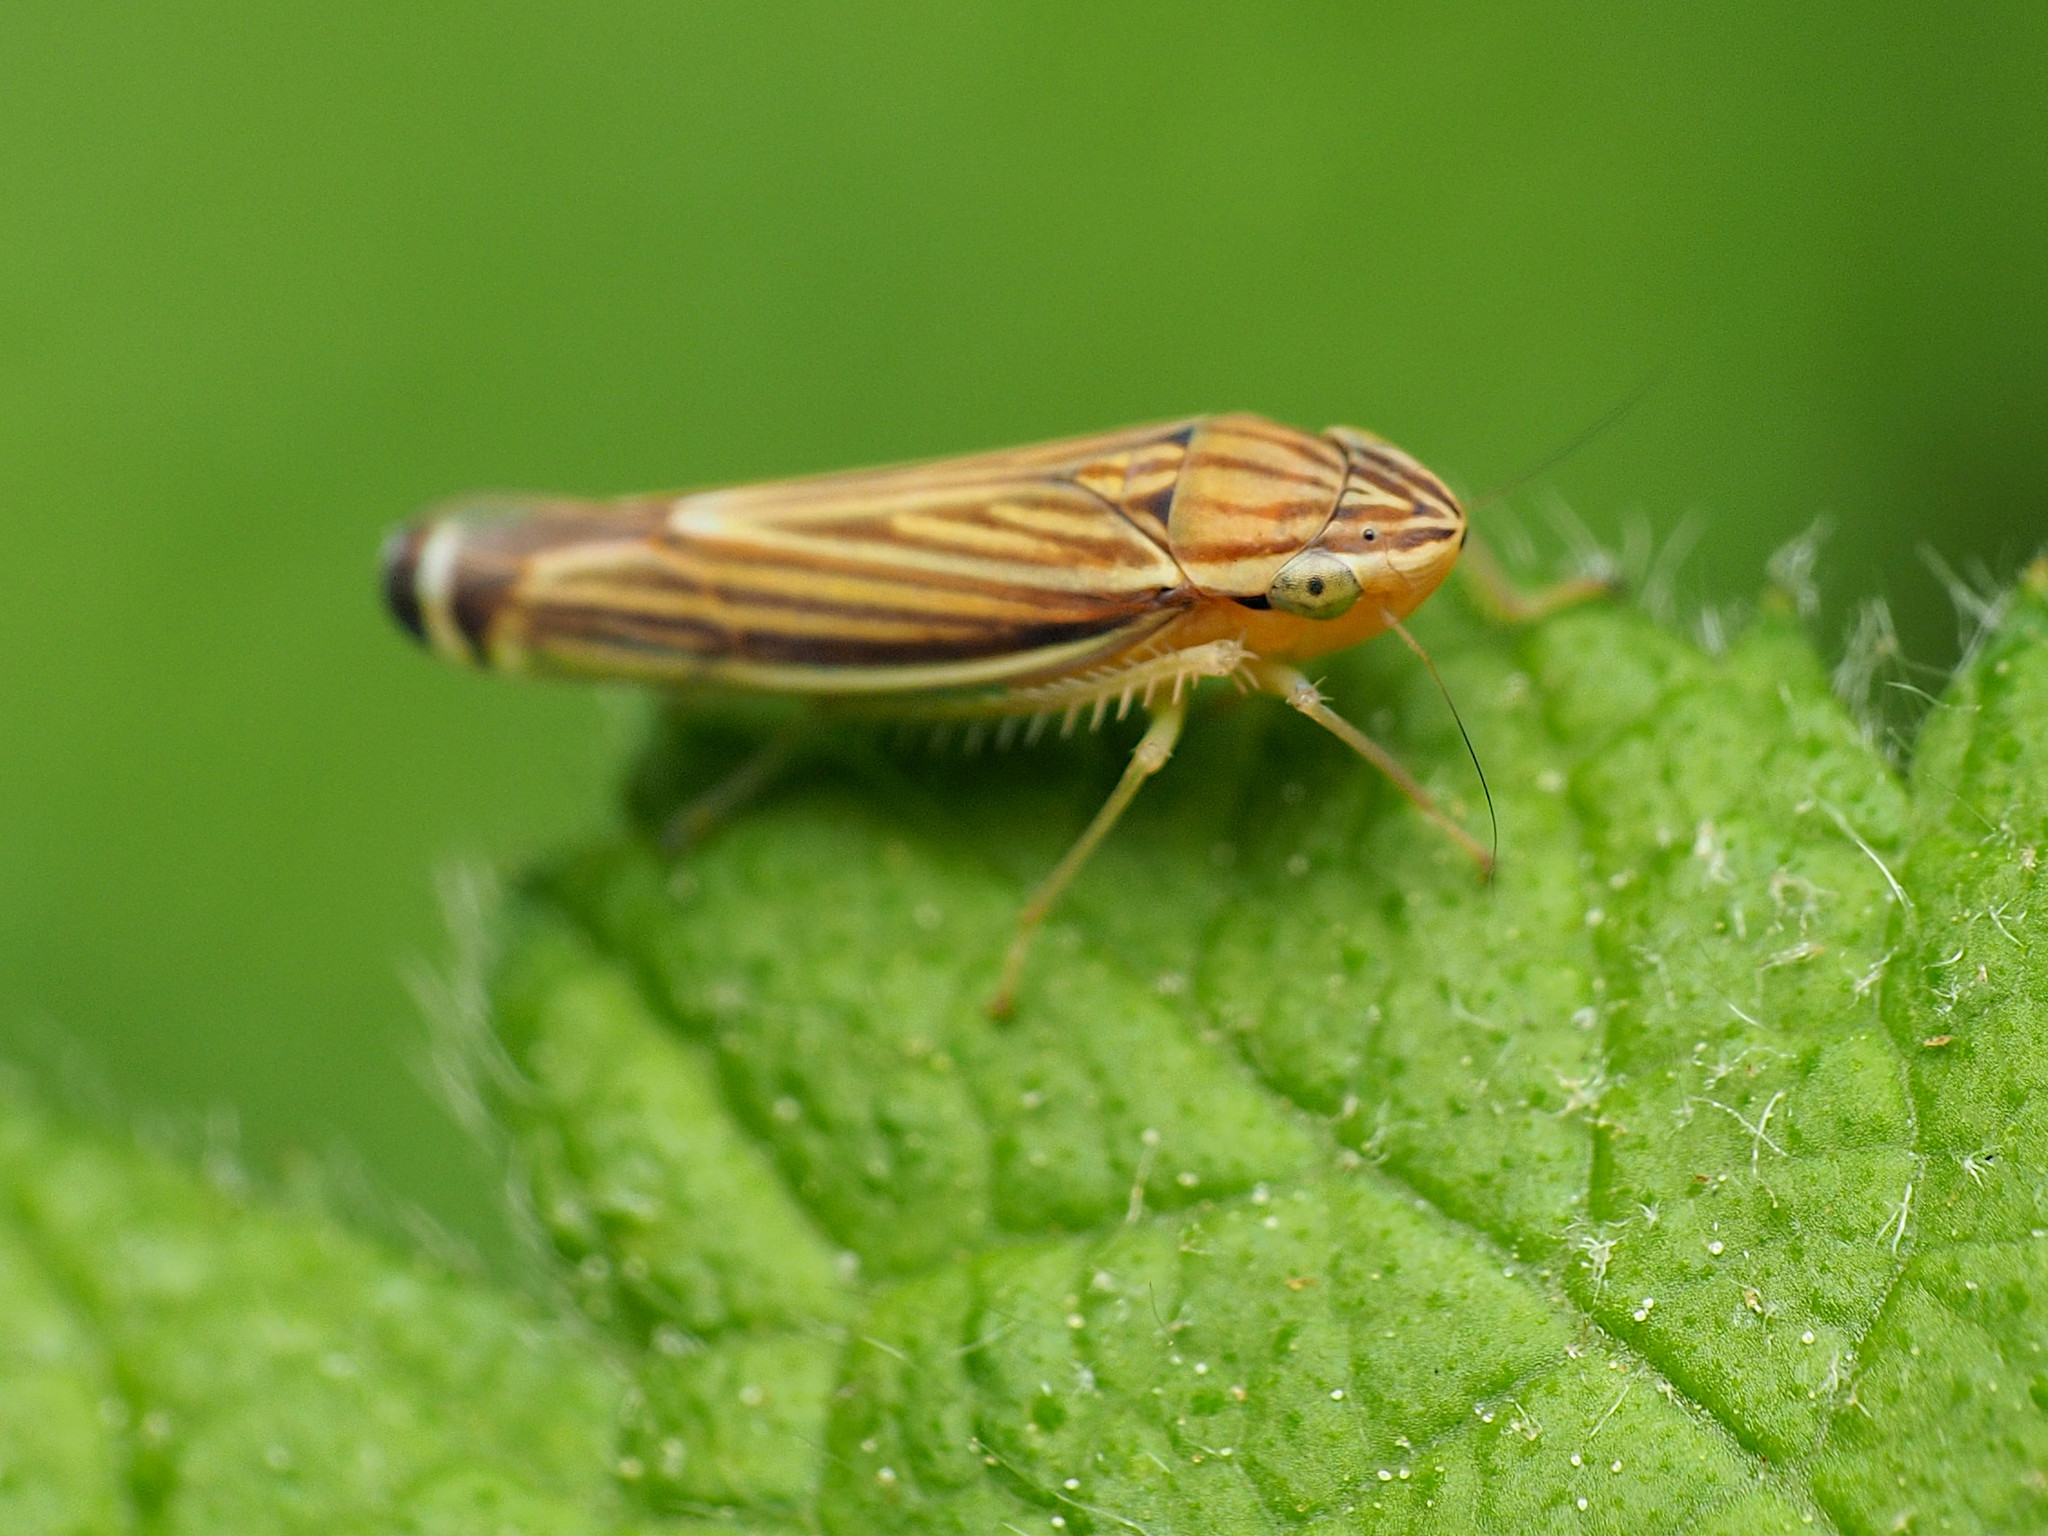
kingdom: Animalia
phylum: Arthropoda
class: Insecta
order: Hemiptera
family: Cicadellidae
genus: Sibovia
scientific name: Sibovia occatoria
